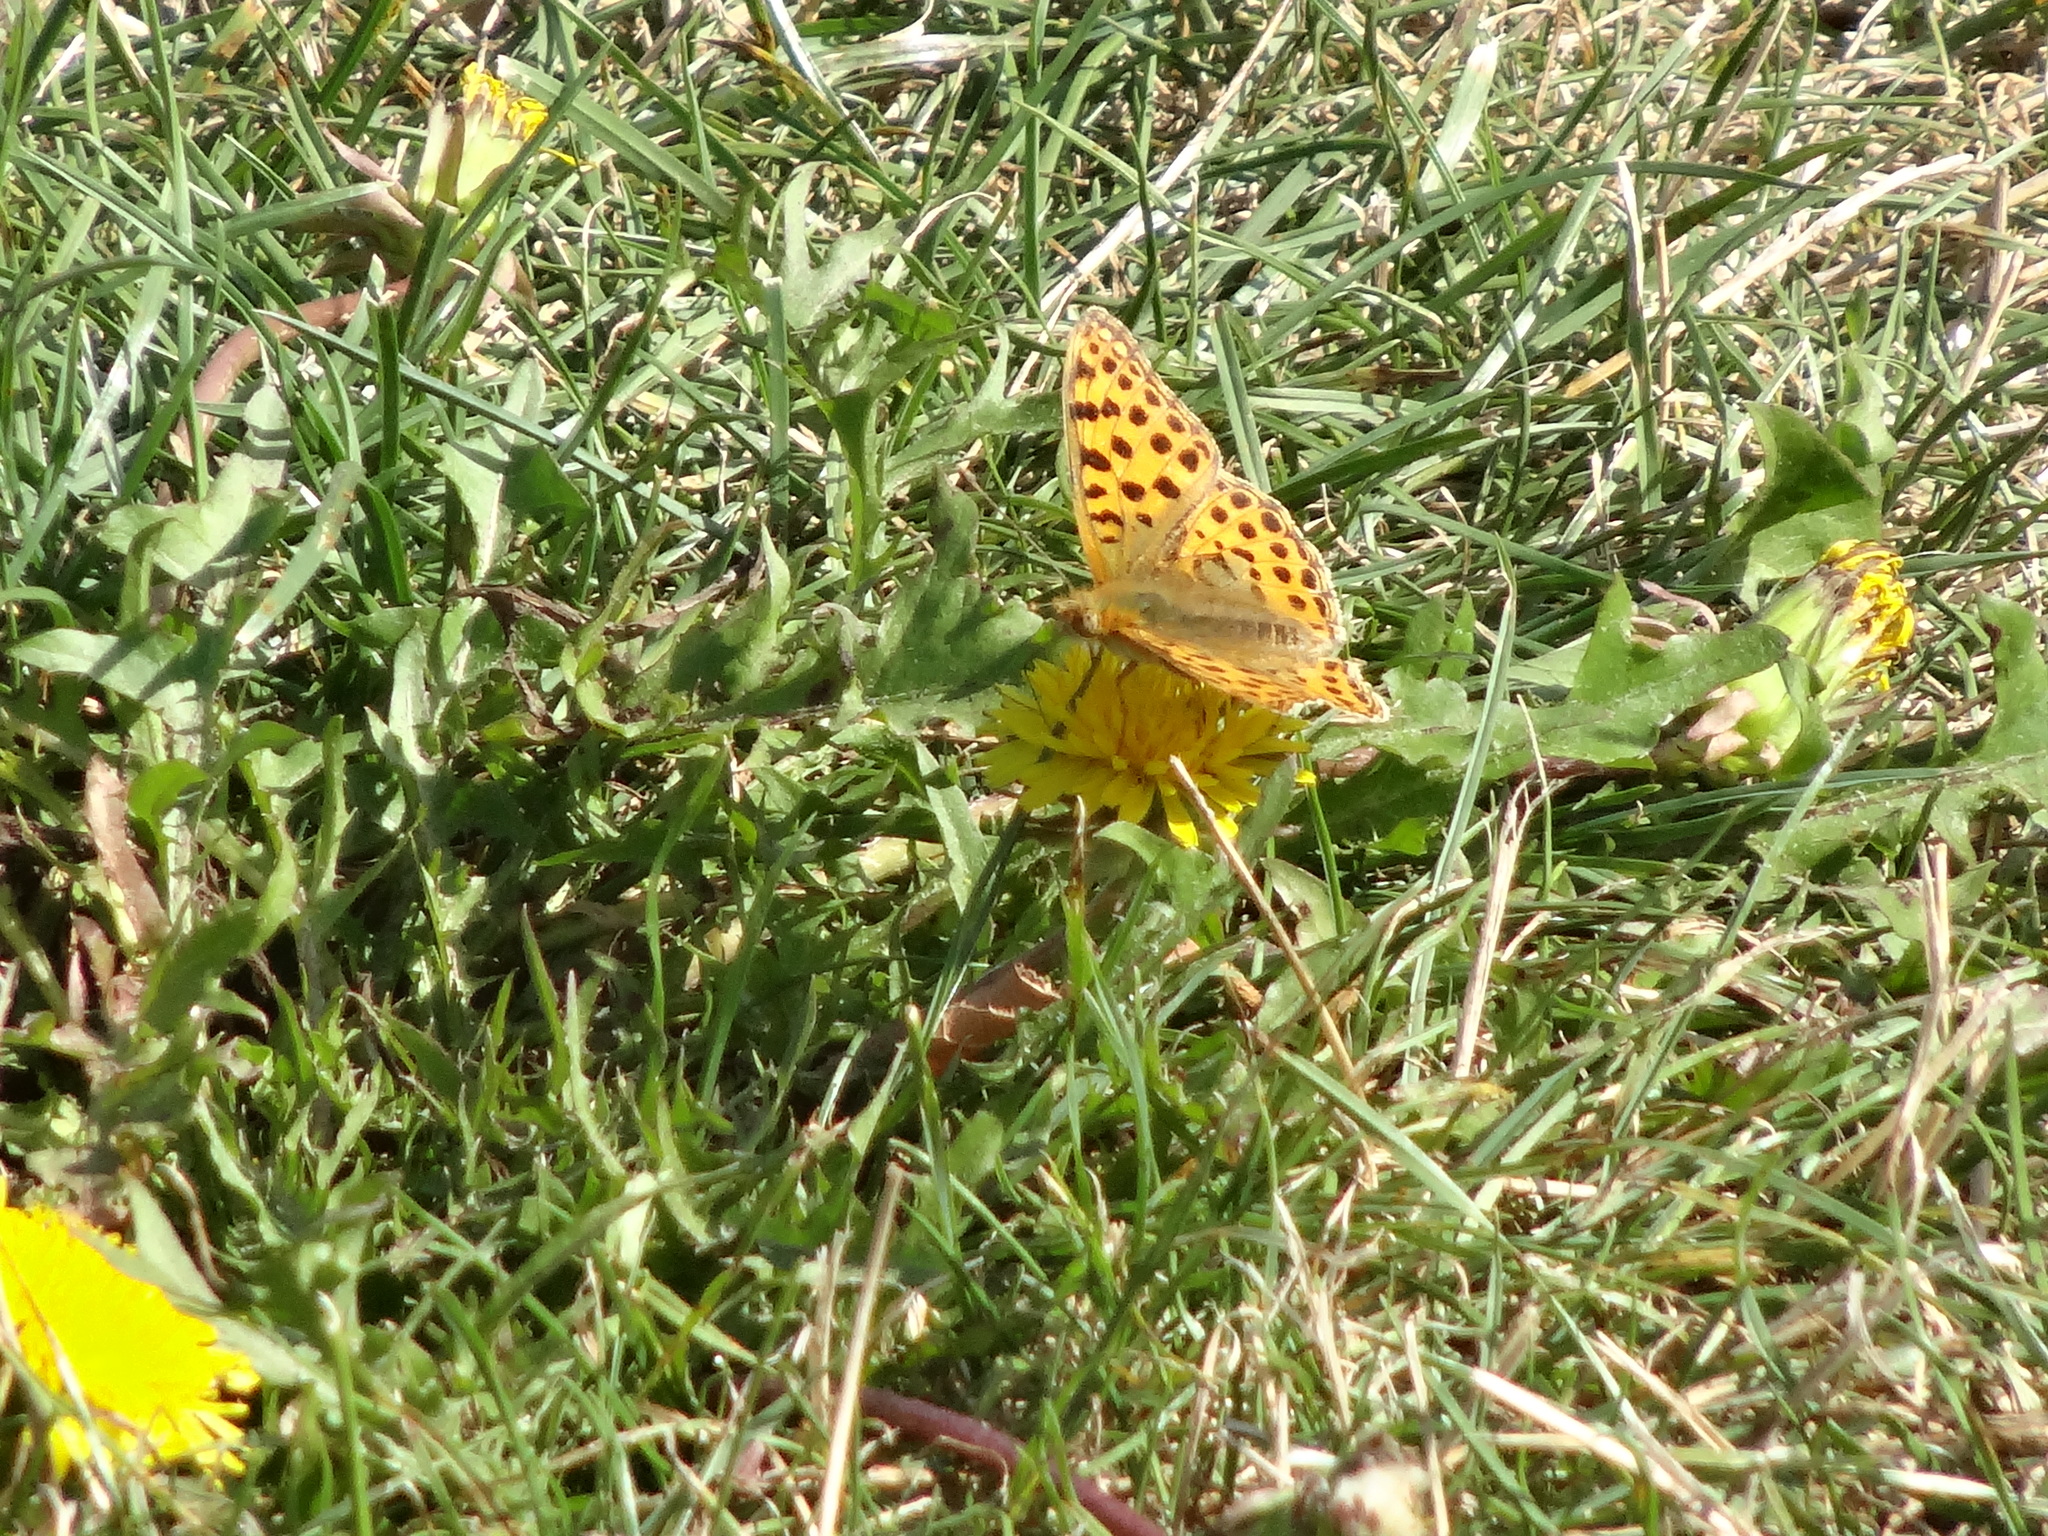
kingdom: Animalia
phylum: Arthropoda
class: Insecta
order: Lepidoptera
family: Nymphalidae
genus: Issoria
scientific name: Issoria lathonia
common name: Queen of spain fritillary
